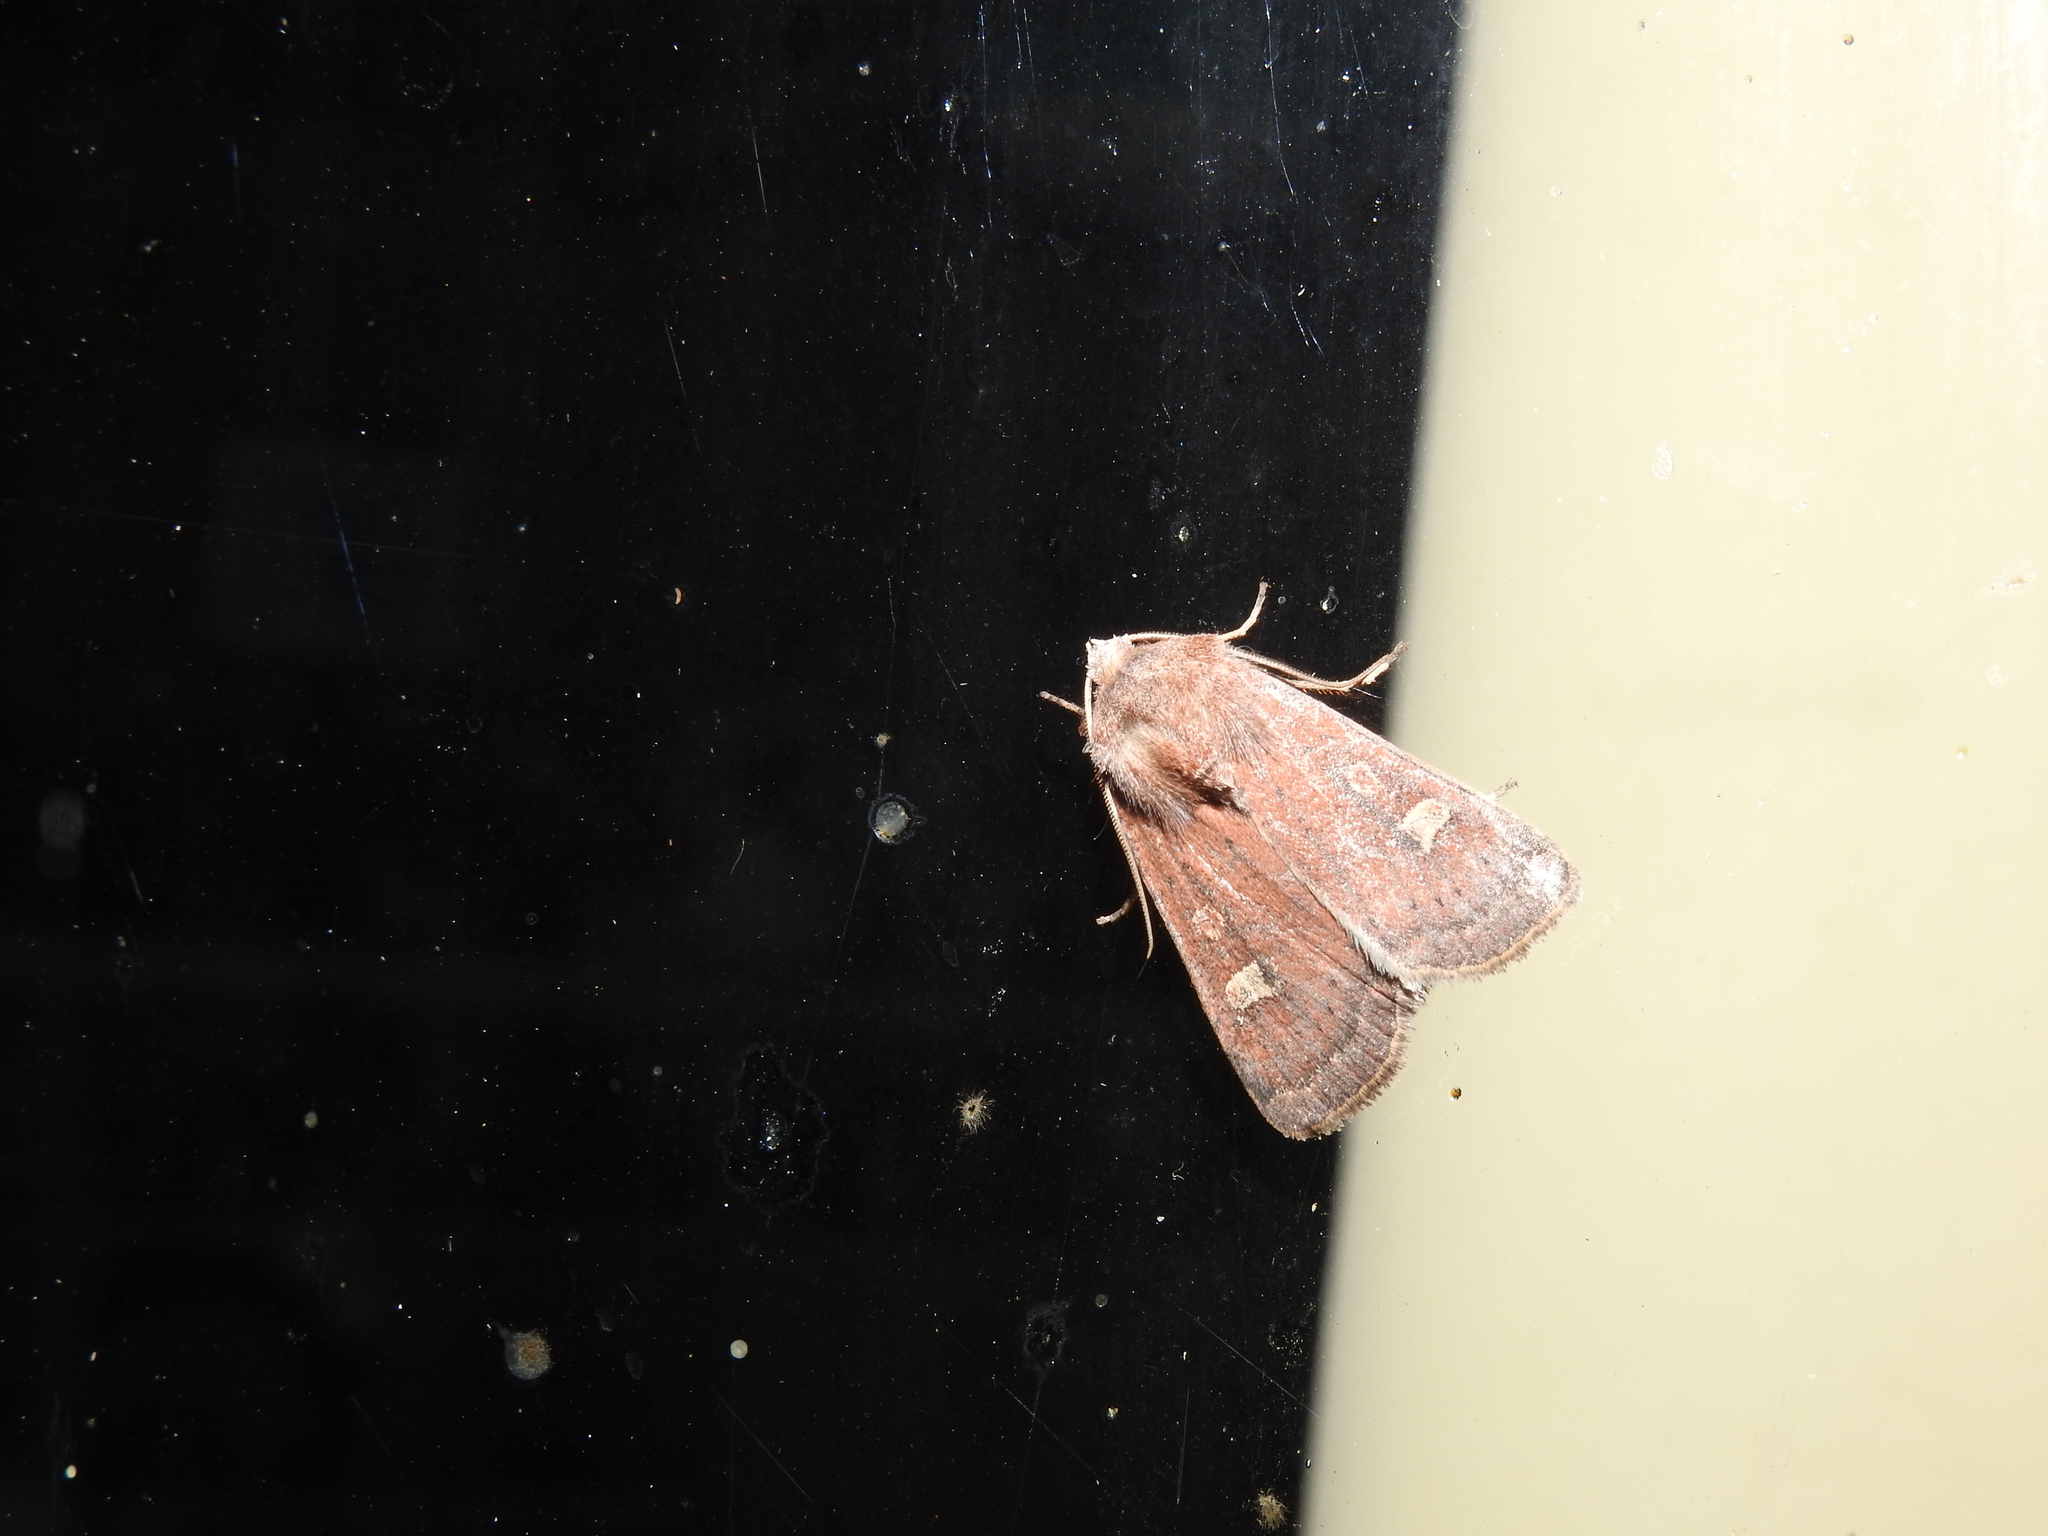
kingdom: Animalia
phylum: Arthropoda
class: Insecta
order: Lepidoptera
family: Noctuidae
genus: Xestia
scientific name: Xestia xanthographa
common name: Square-spot rustic
